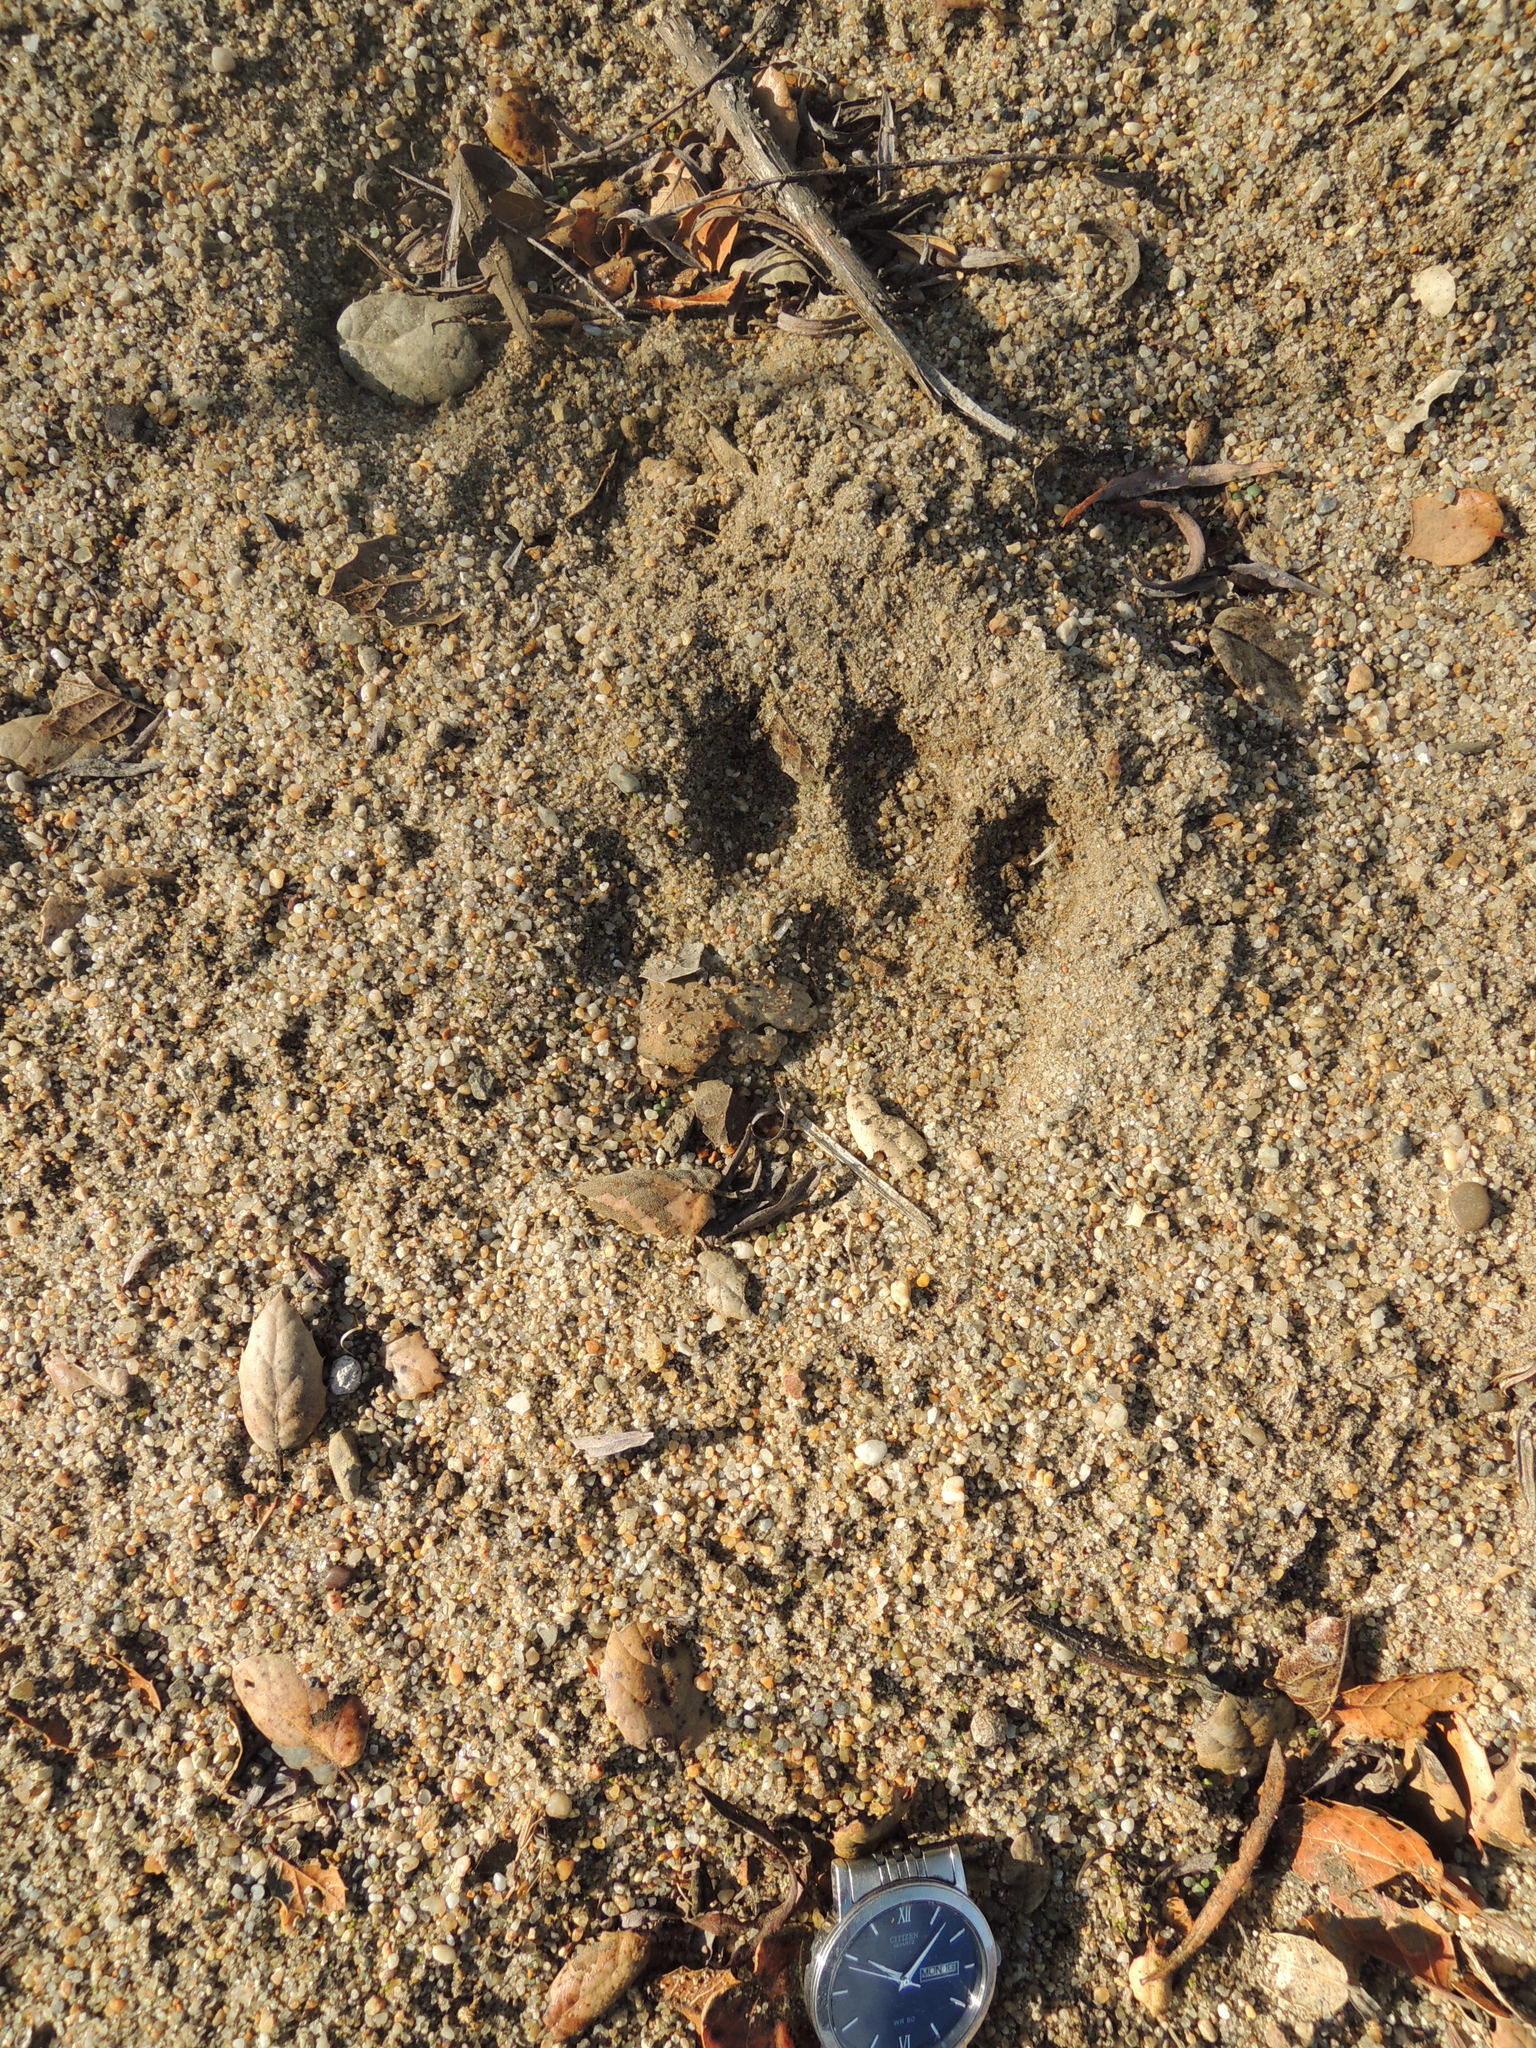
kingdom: Animalia
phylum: Chordata
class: Mammalia
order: Carnivora
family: Felidae
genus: Puma
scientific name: Puma concolor
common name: Puma
